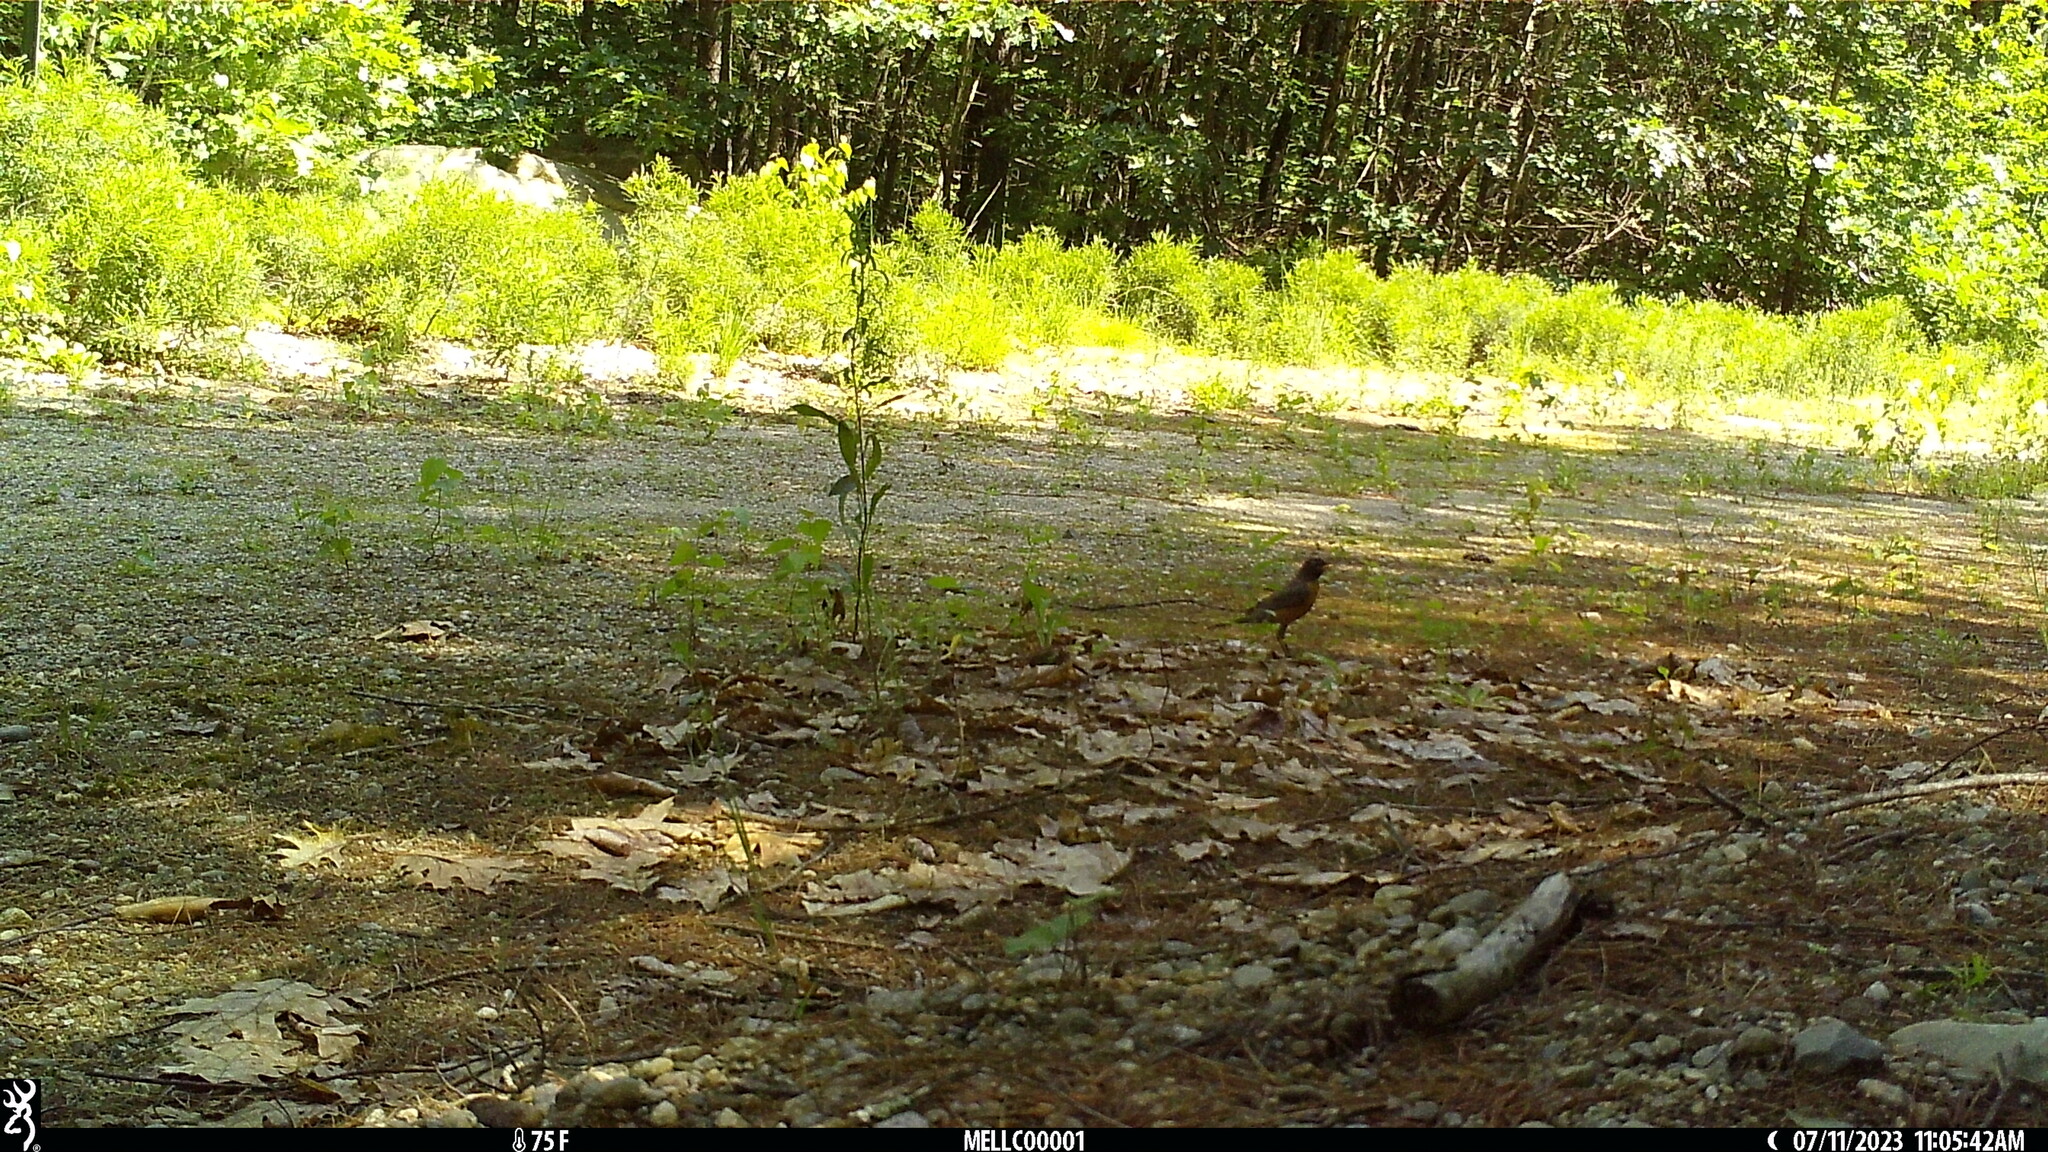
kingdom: Animalia
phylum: Chordata
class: Aves
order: Passeriformes
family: Turdidae
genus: Turdus
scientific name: Turdus migratorius
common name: American robin
